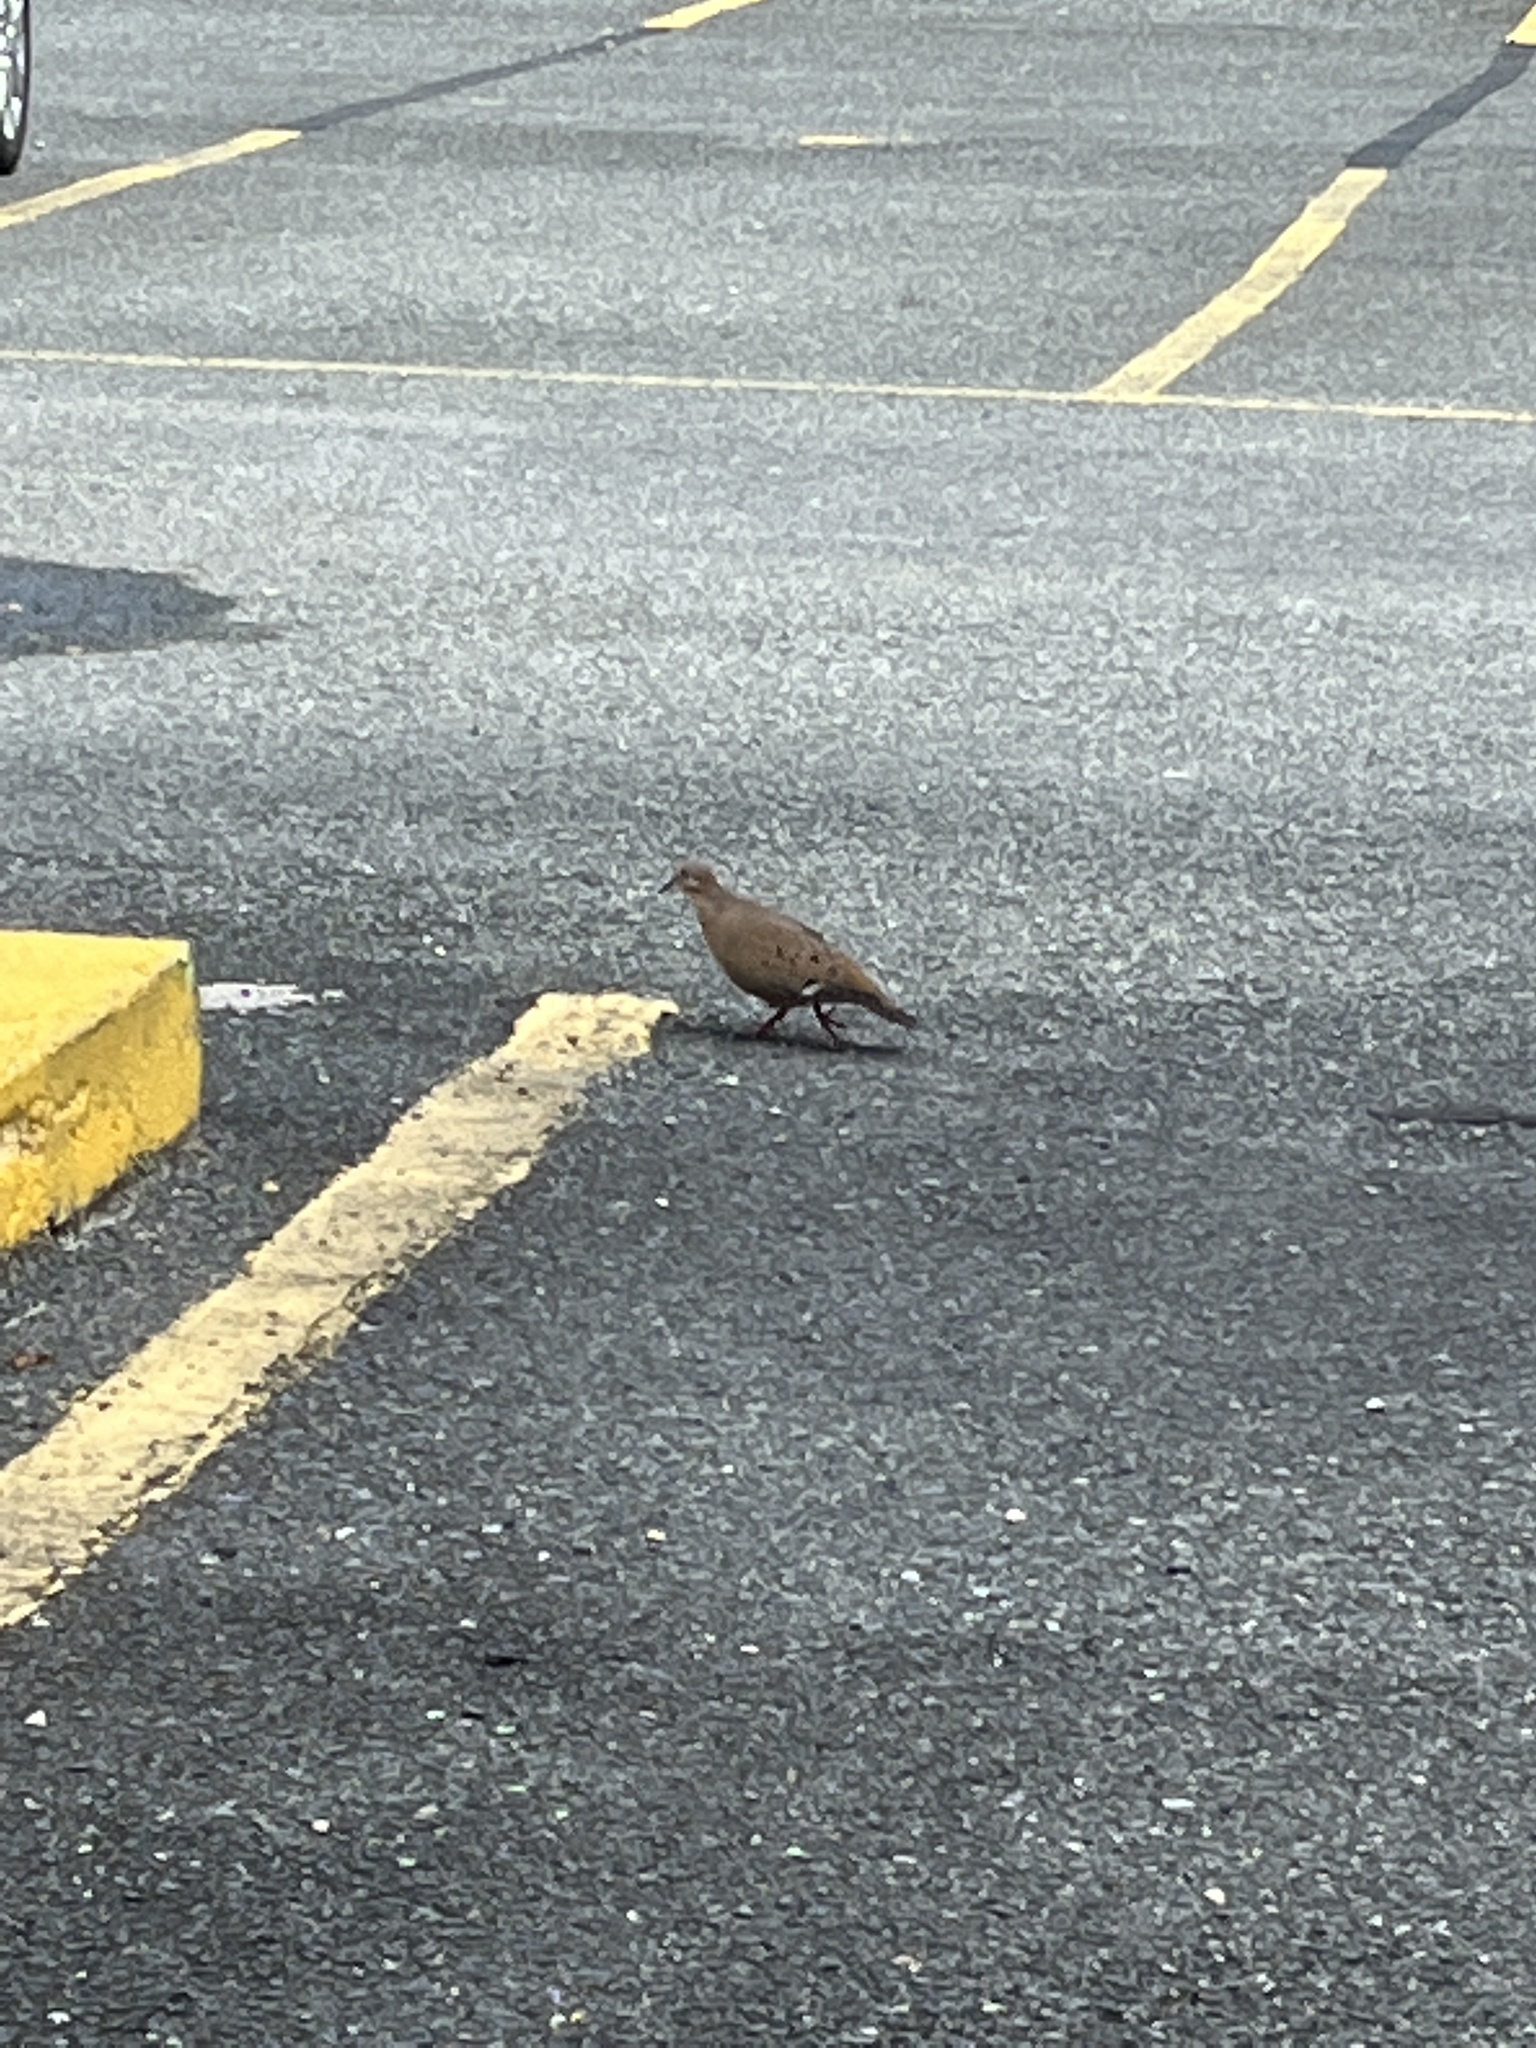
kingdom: Animalia
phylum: Chordata
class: Aves
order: Columbiformes
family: Columbidae
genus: Zenaida
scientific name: Zenaida aurita
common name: Zenaida dove
